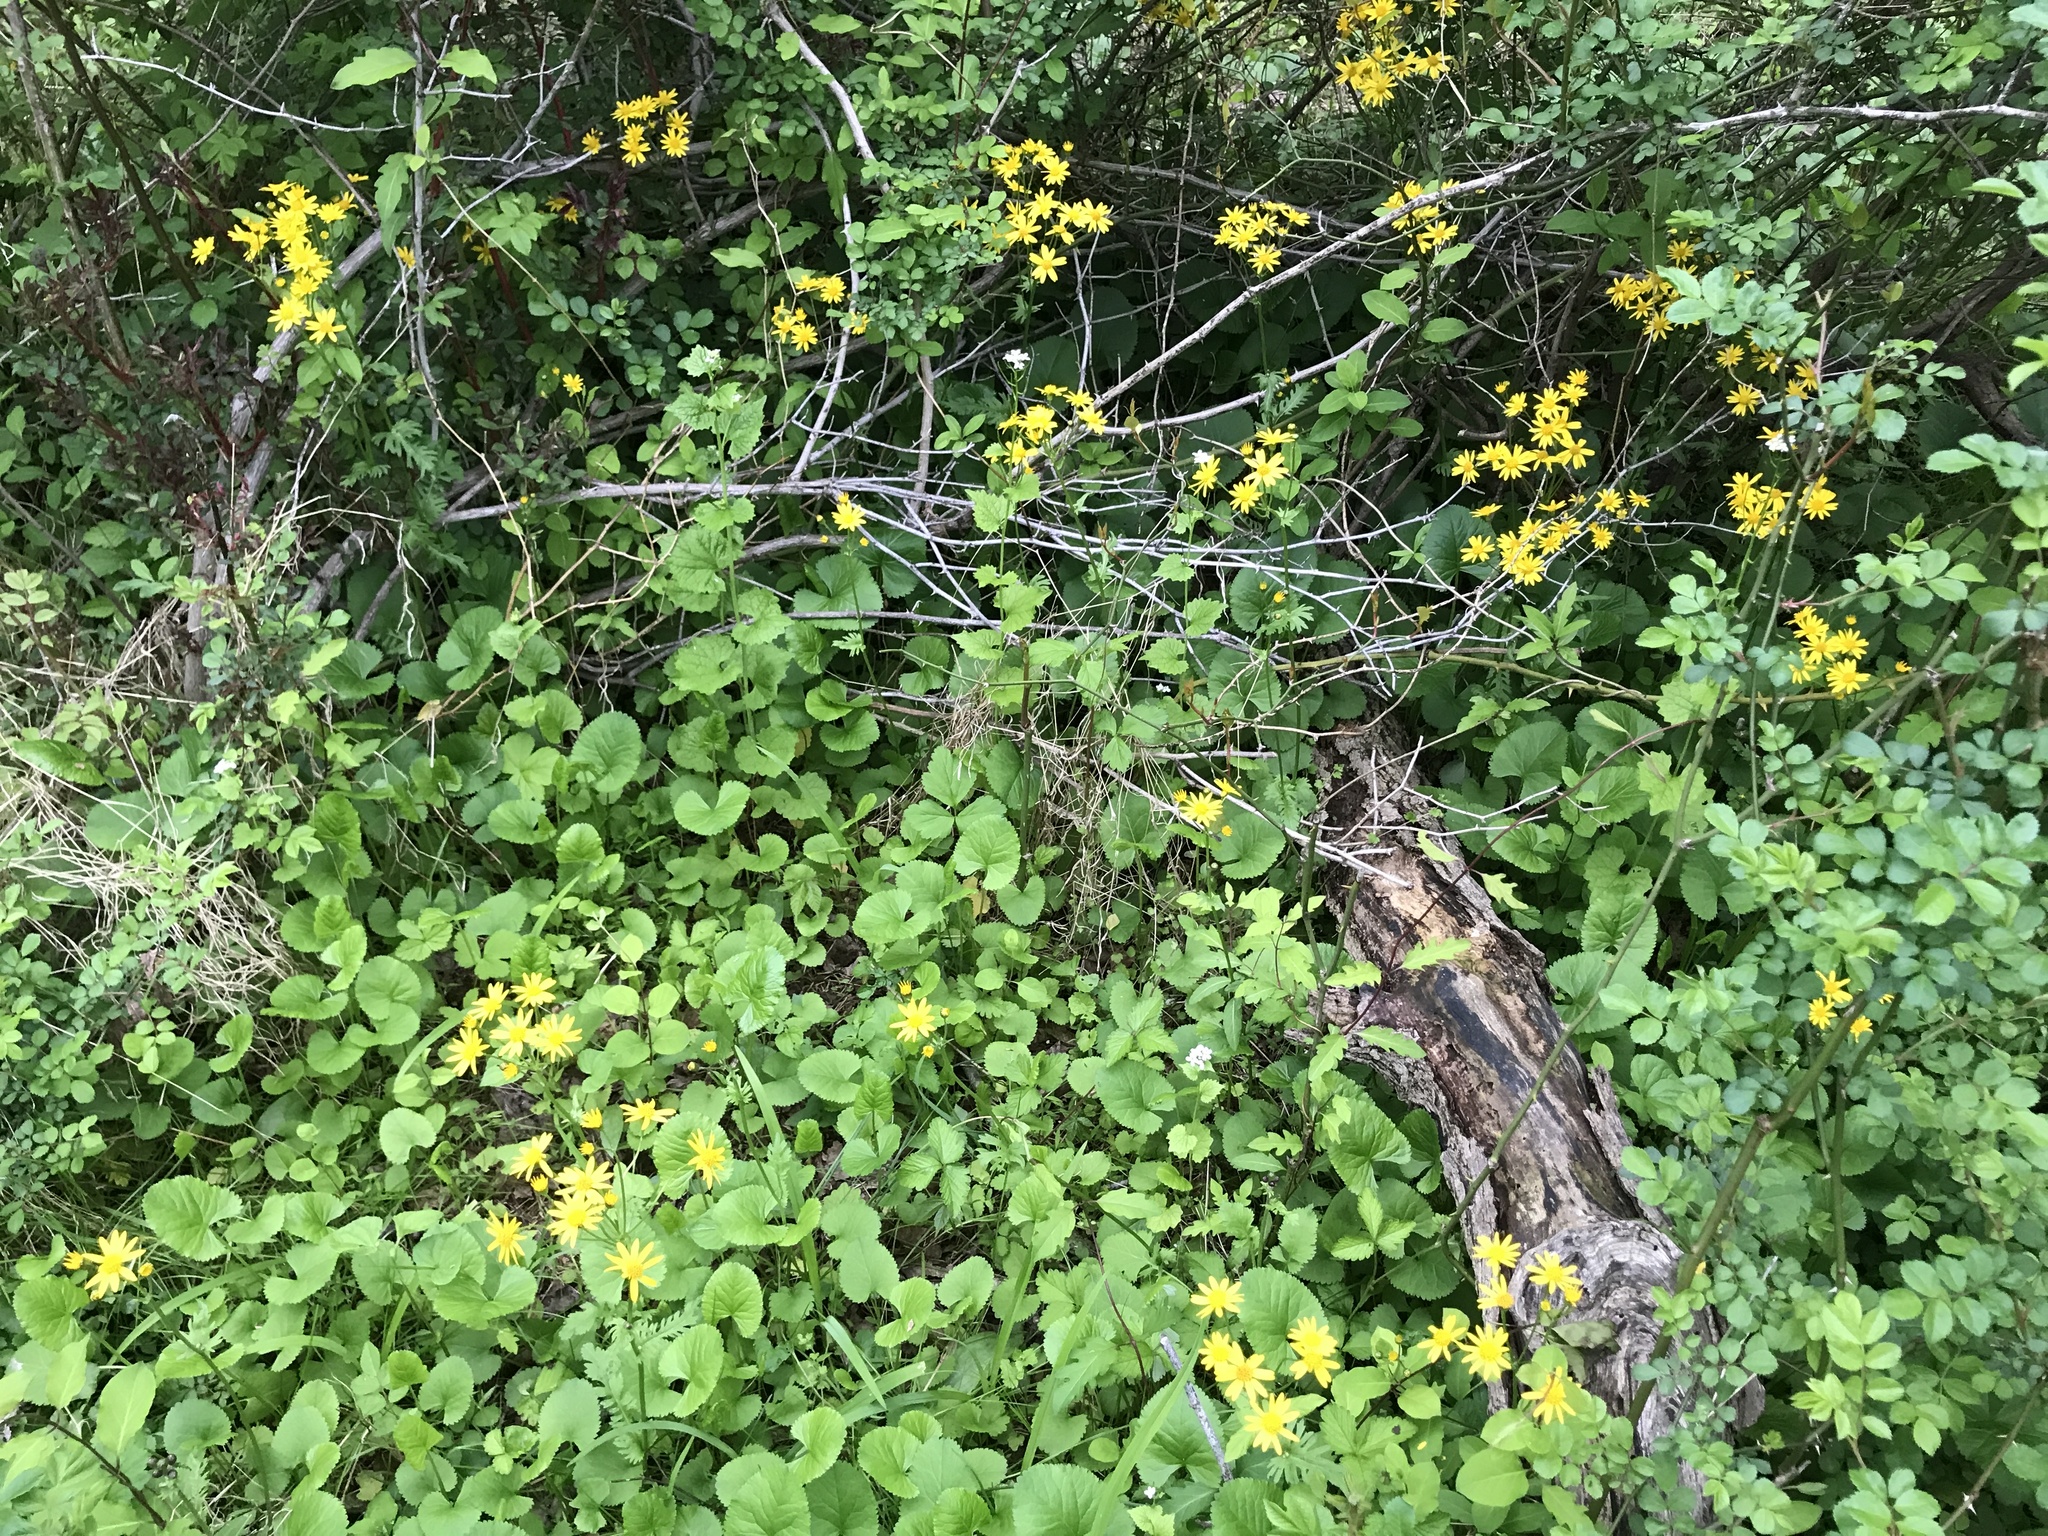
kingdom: Plantae
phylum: Tracheophyta
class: Magnoliopsida
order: Asterales
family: Asteraceae
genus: Packera
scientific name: Packera aurea
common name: Golden groundsel
